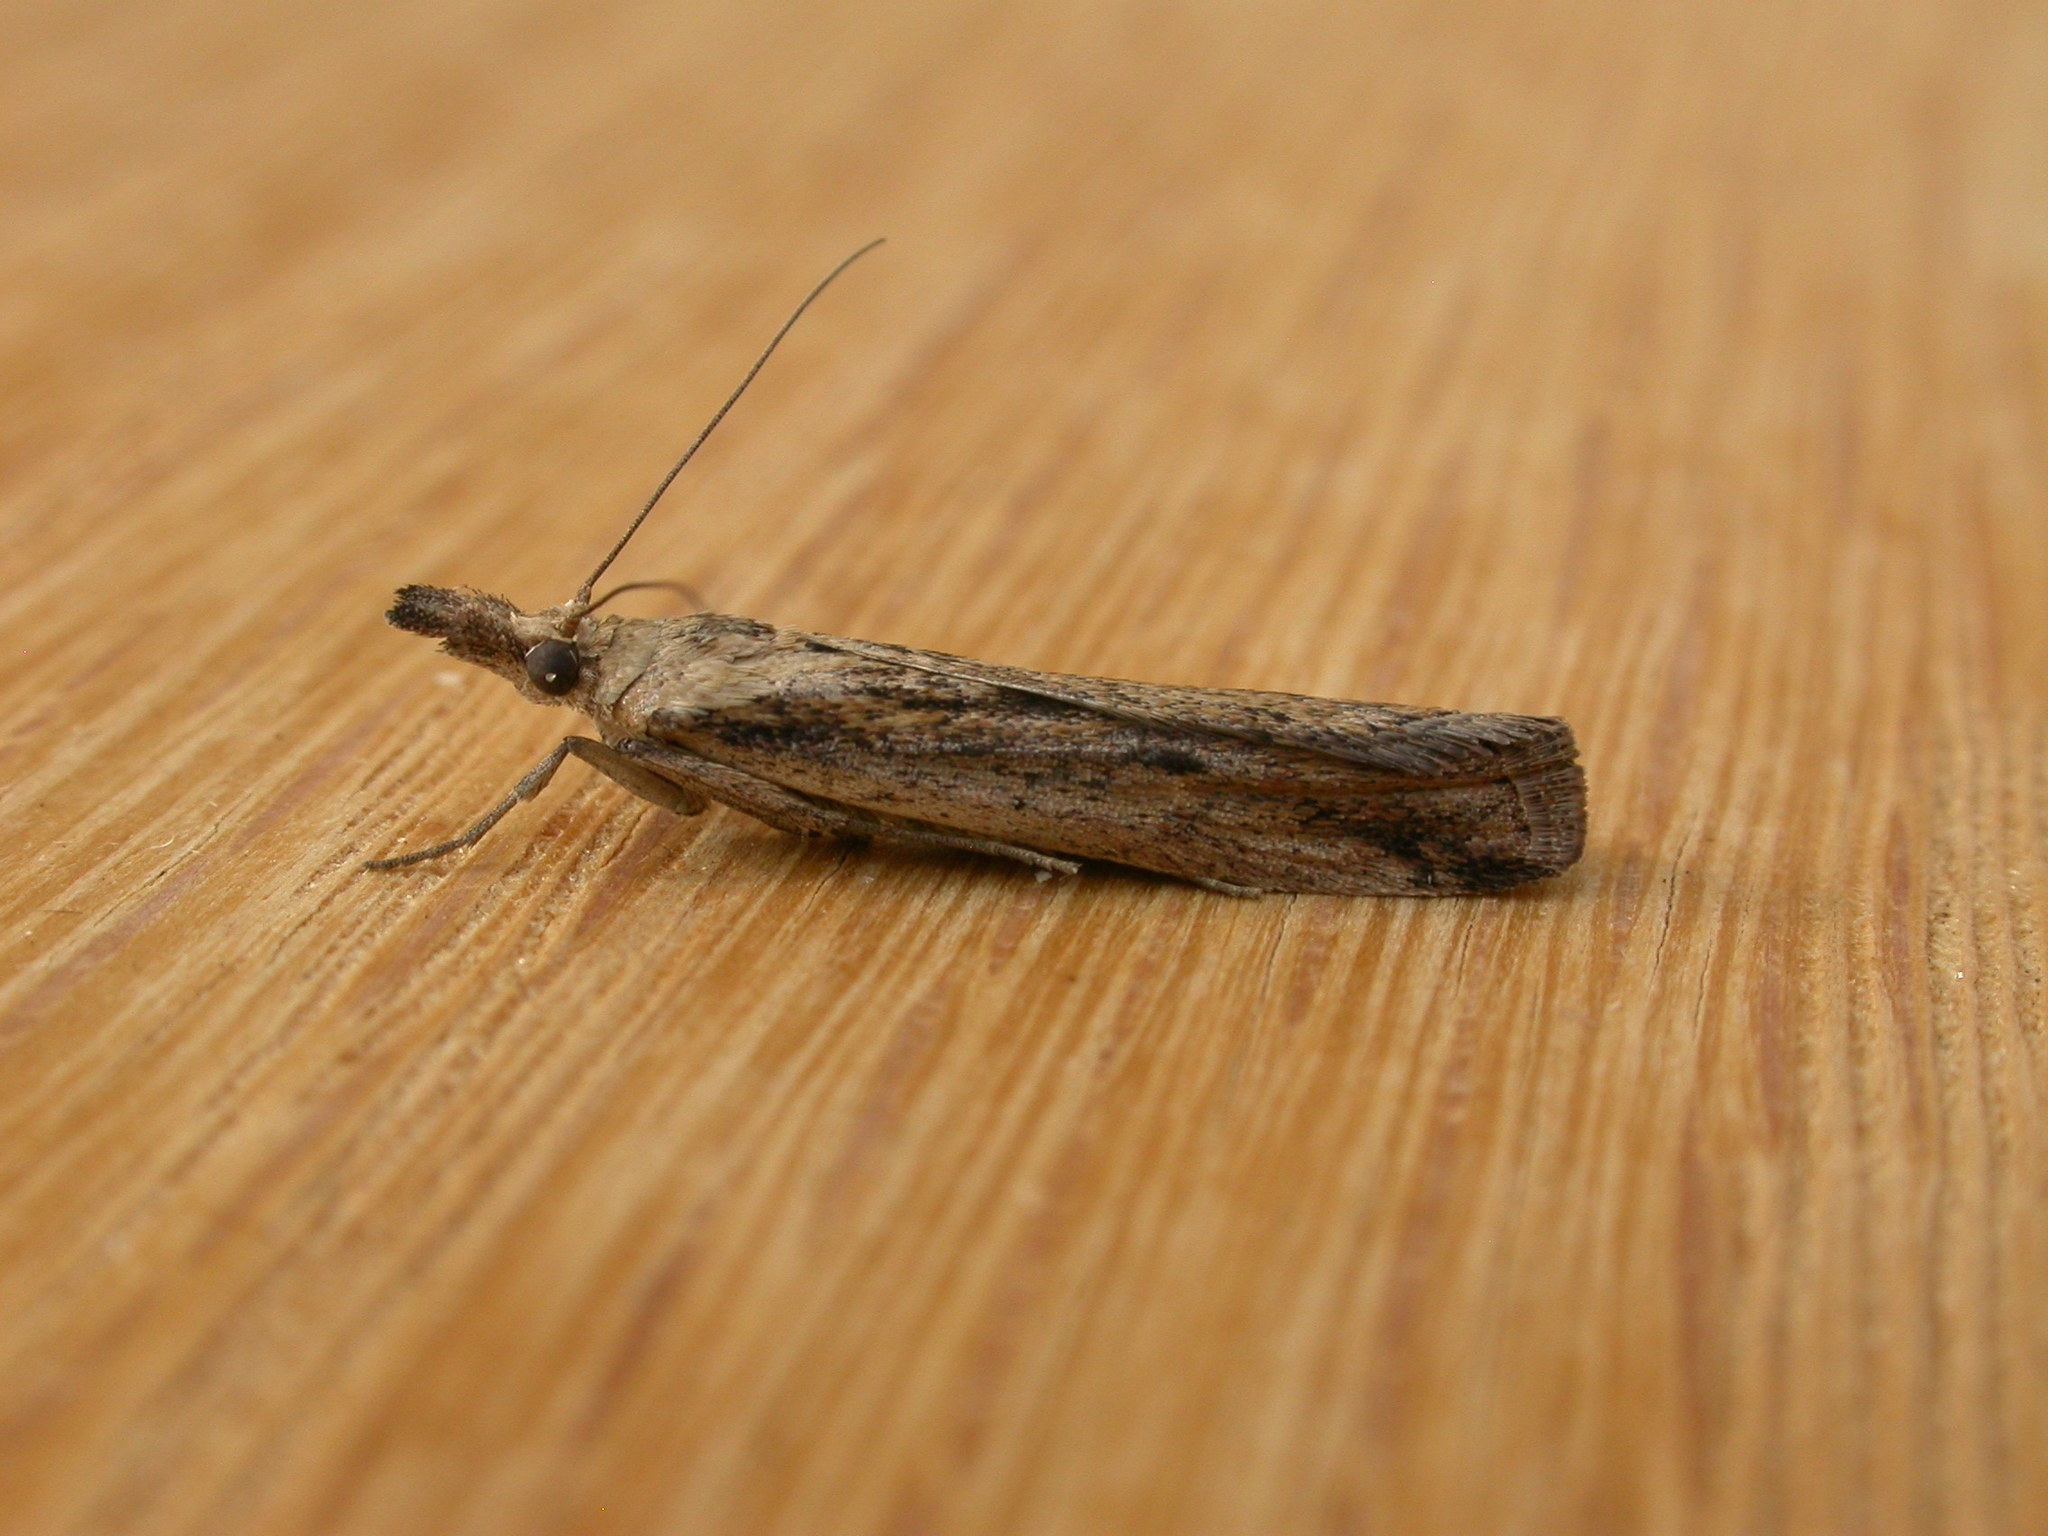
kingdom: Animalia
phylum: Arthropoda
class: Insecta
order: Lepidoptera
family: Pyralidae
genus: Faveria
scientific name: Faveria tritalis
